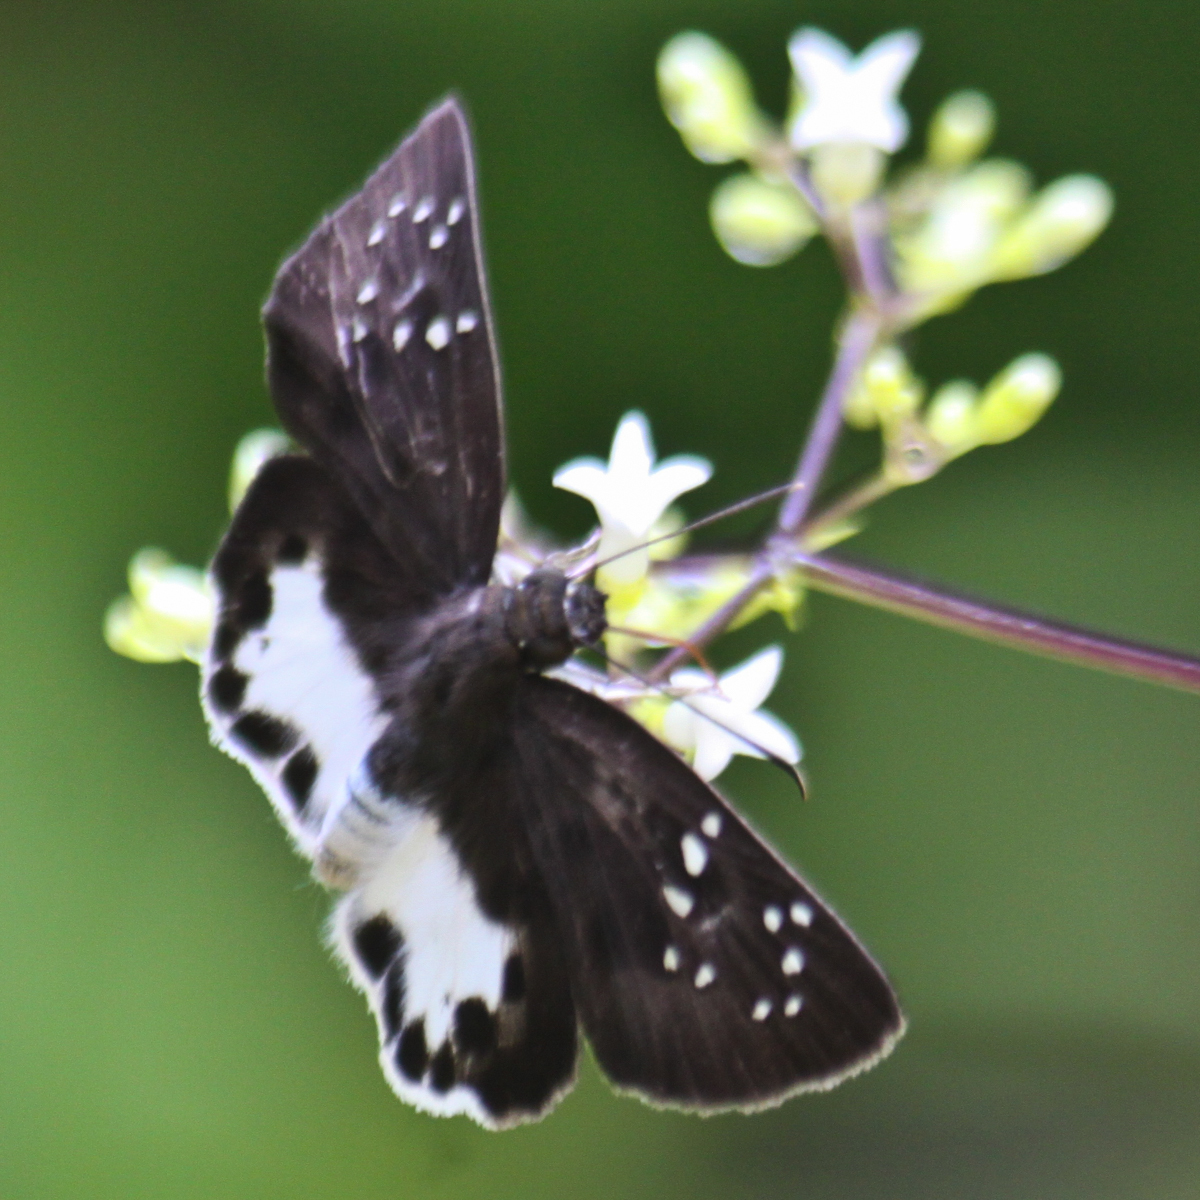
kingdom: Animalia
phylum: Arthropoda
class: Insecta
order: Lepidoptera
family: Hesperiidae
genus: Tagiades
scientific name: Tagiades litigiosa
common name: Water snow flat
